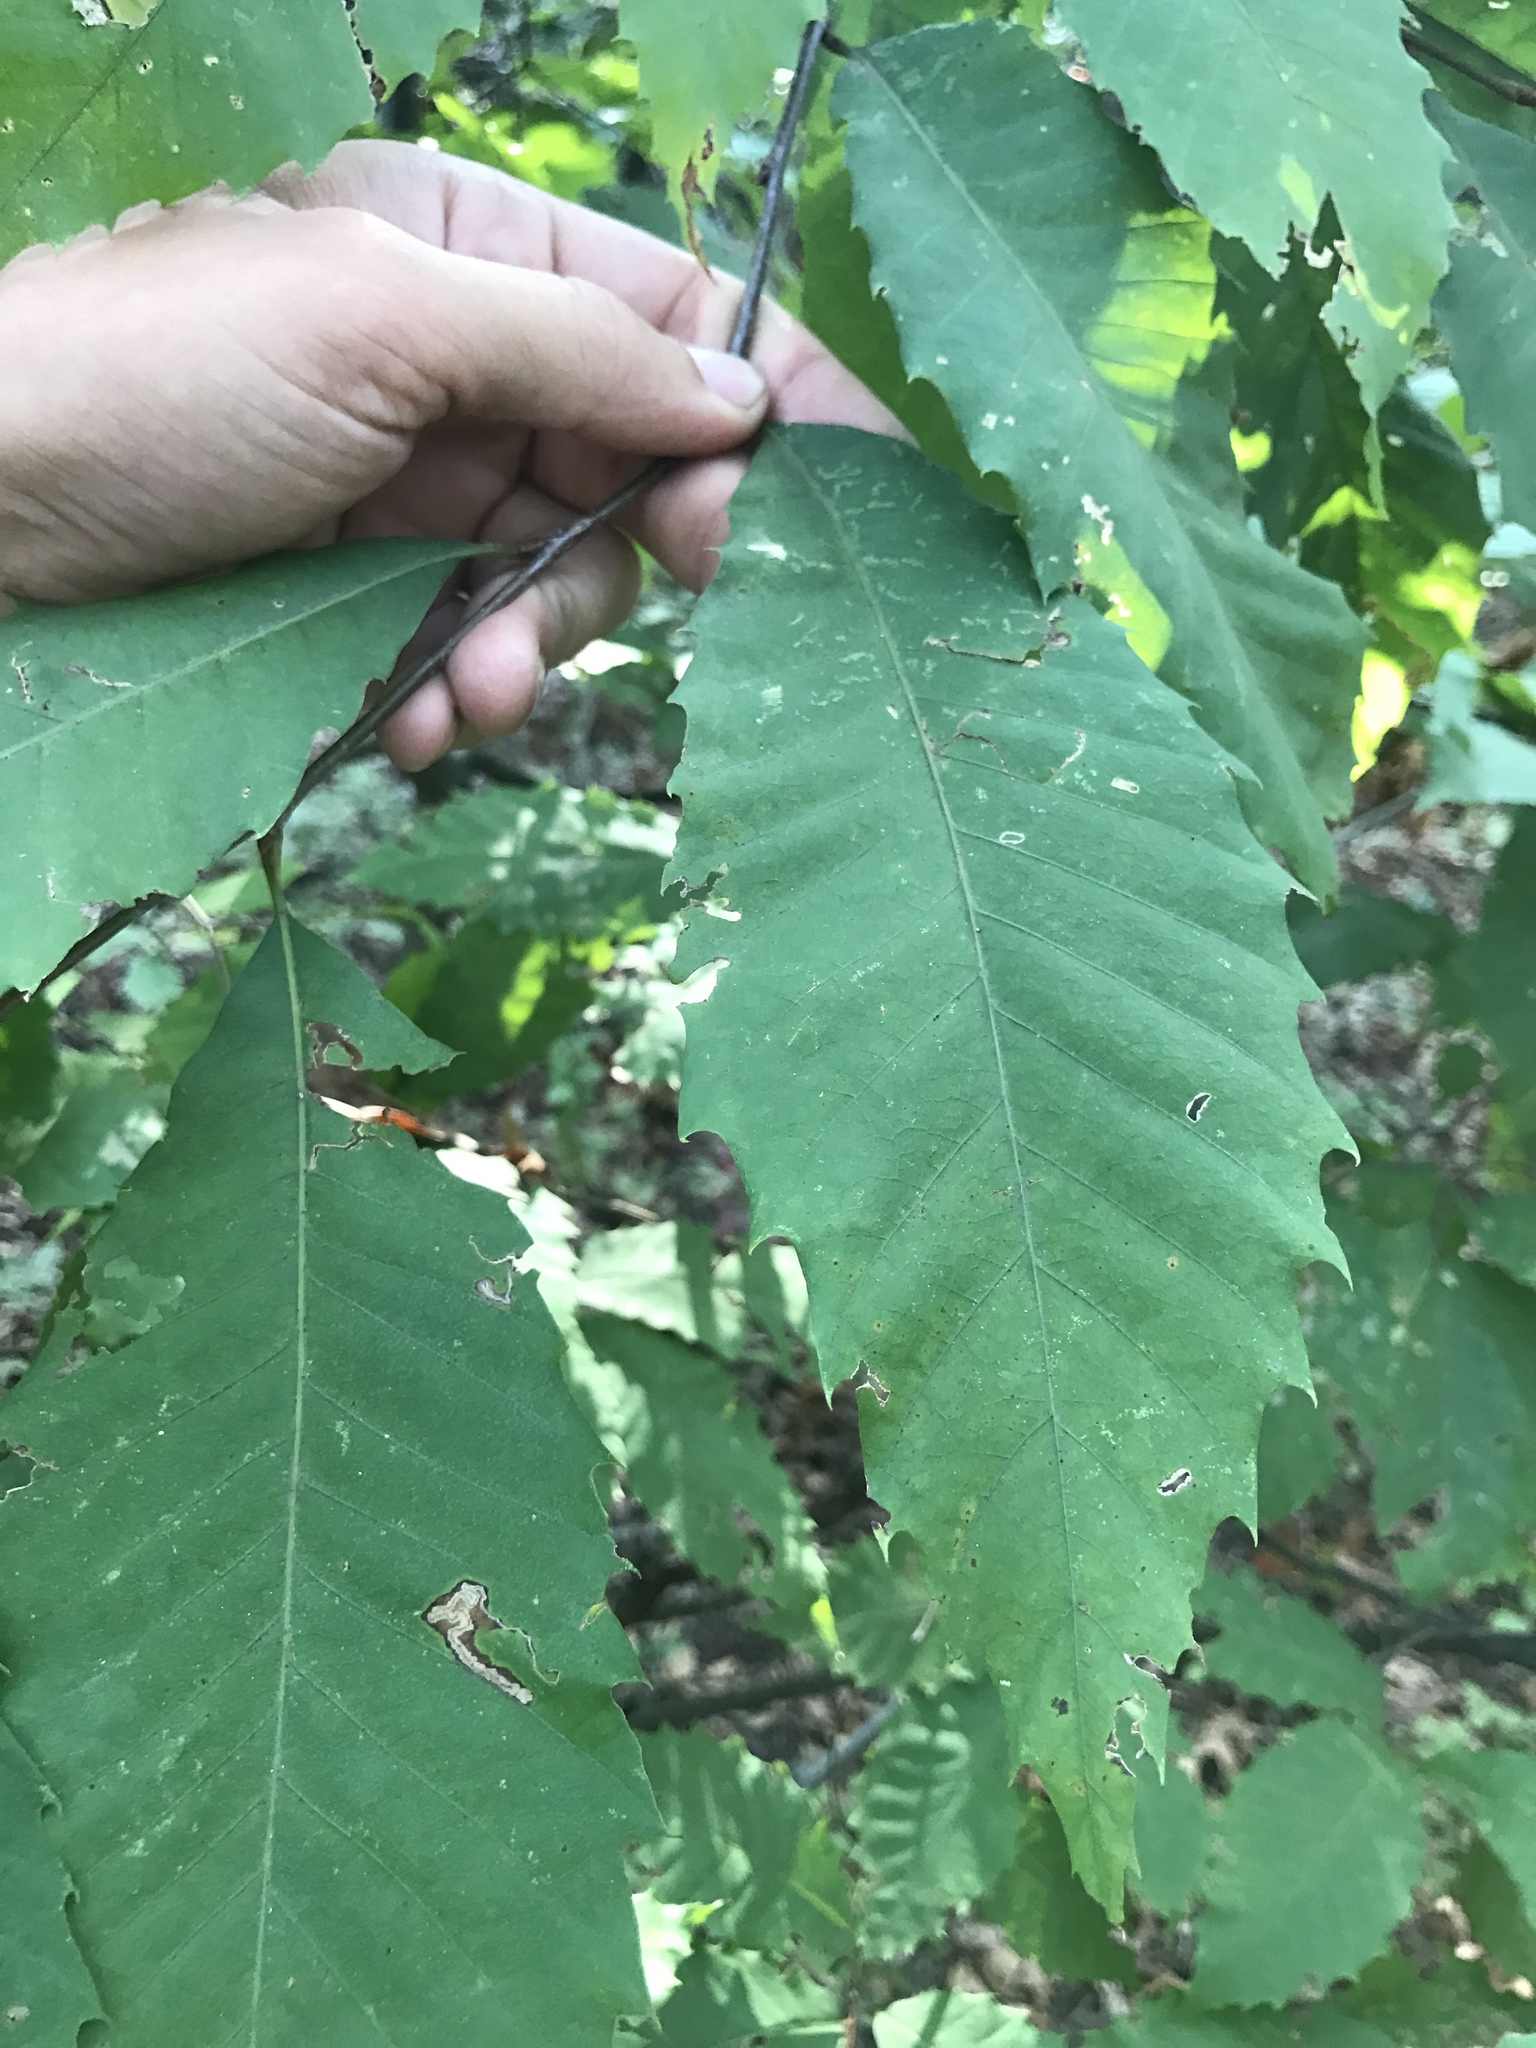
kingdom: Plantae
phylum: Tracheophyta
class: Magnoliopsida
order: Fagales
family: Fagaceae
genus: Castanea
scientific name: Castanea dentata
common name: American chestnut
